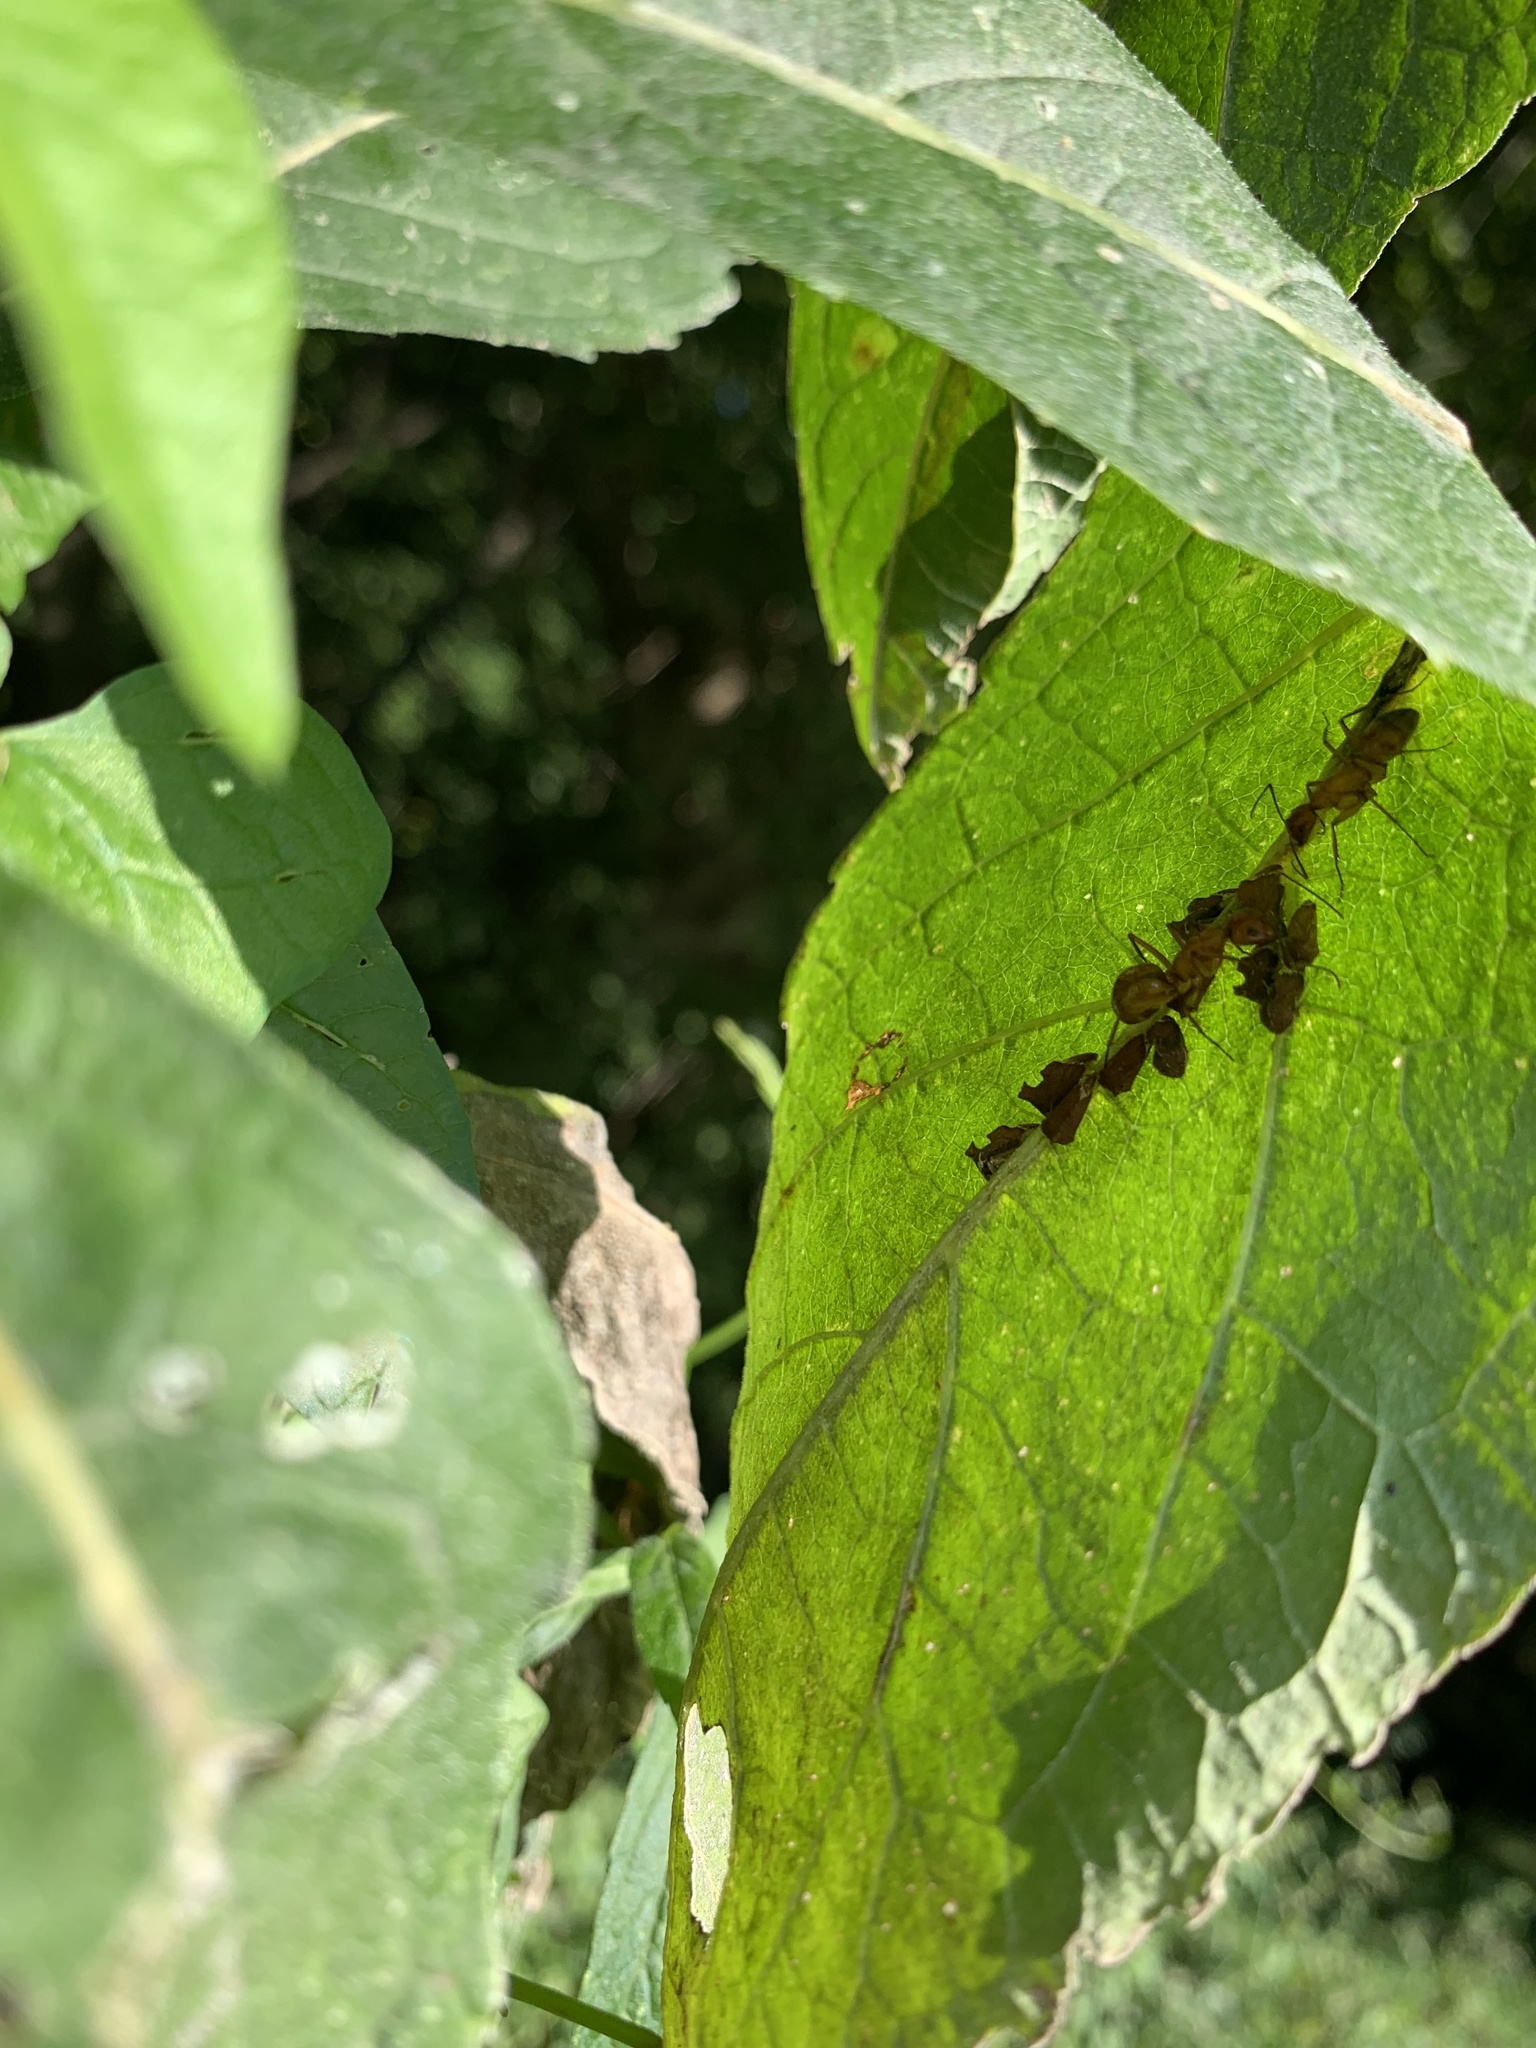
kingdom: Animalia
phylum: Arthropoda
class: Insecta
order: Hymenoptera
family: Formicidae
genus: Camponotus
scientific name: Camponotus castaneus
